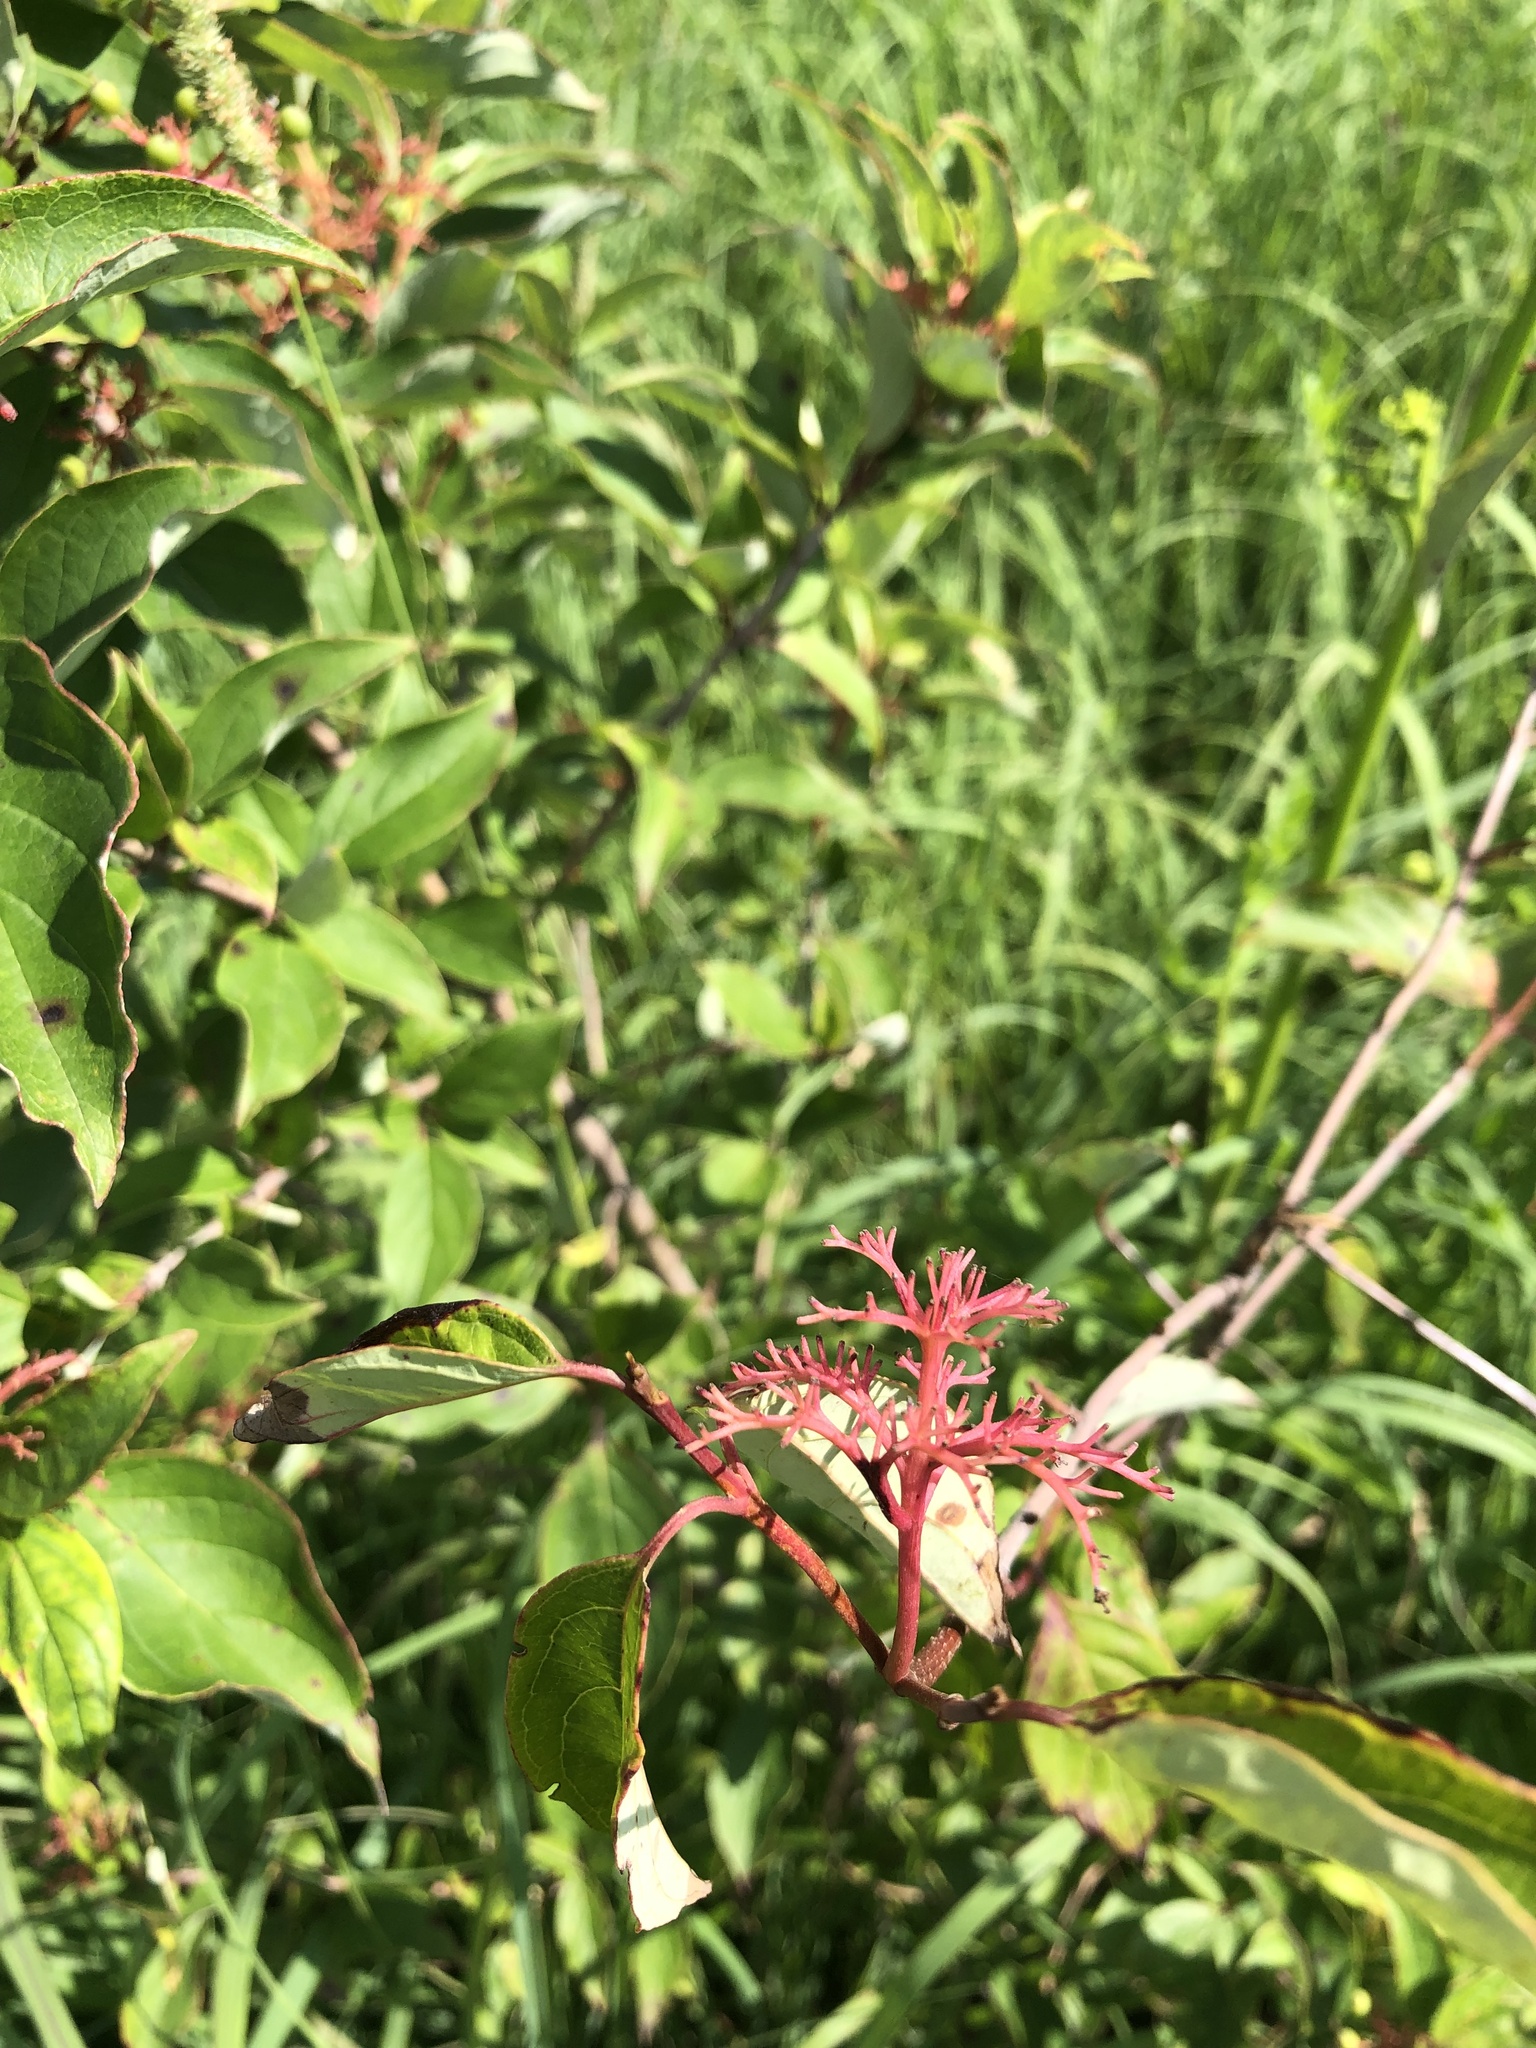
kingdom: Plantae
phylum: Tracheophyta
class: Magnoliopsida
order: Cornales
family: Cornaceae
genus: Cornus
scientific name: Cornus racemosa
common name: Panicled dogwood
